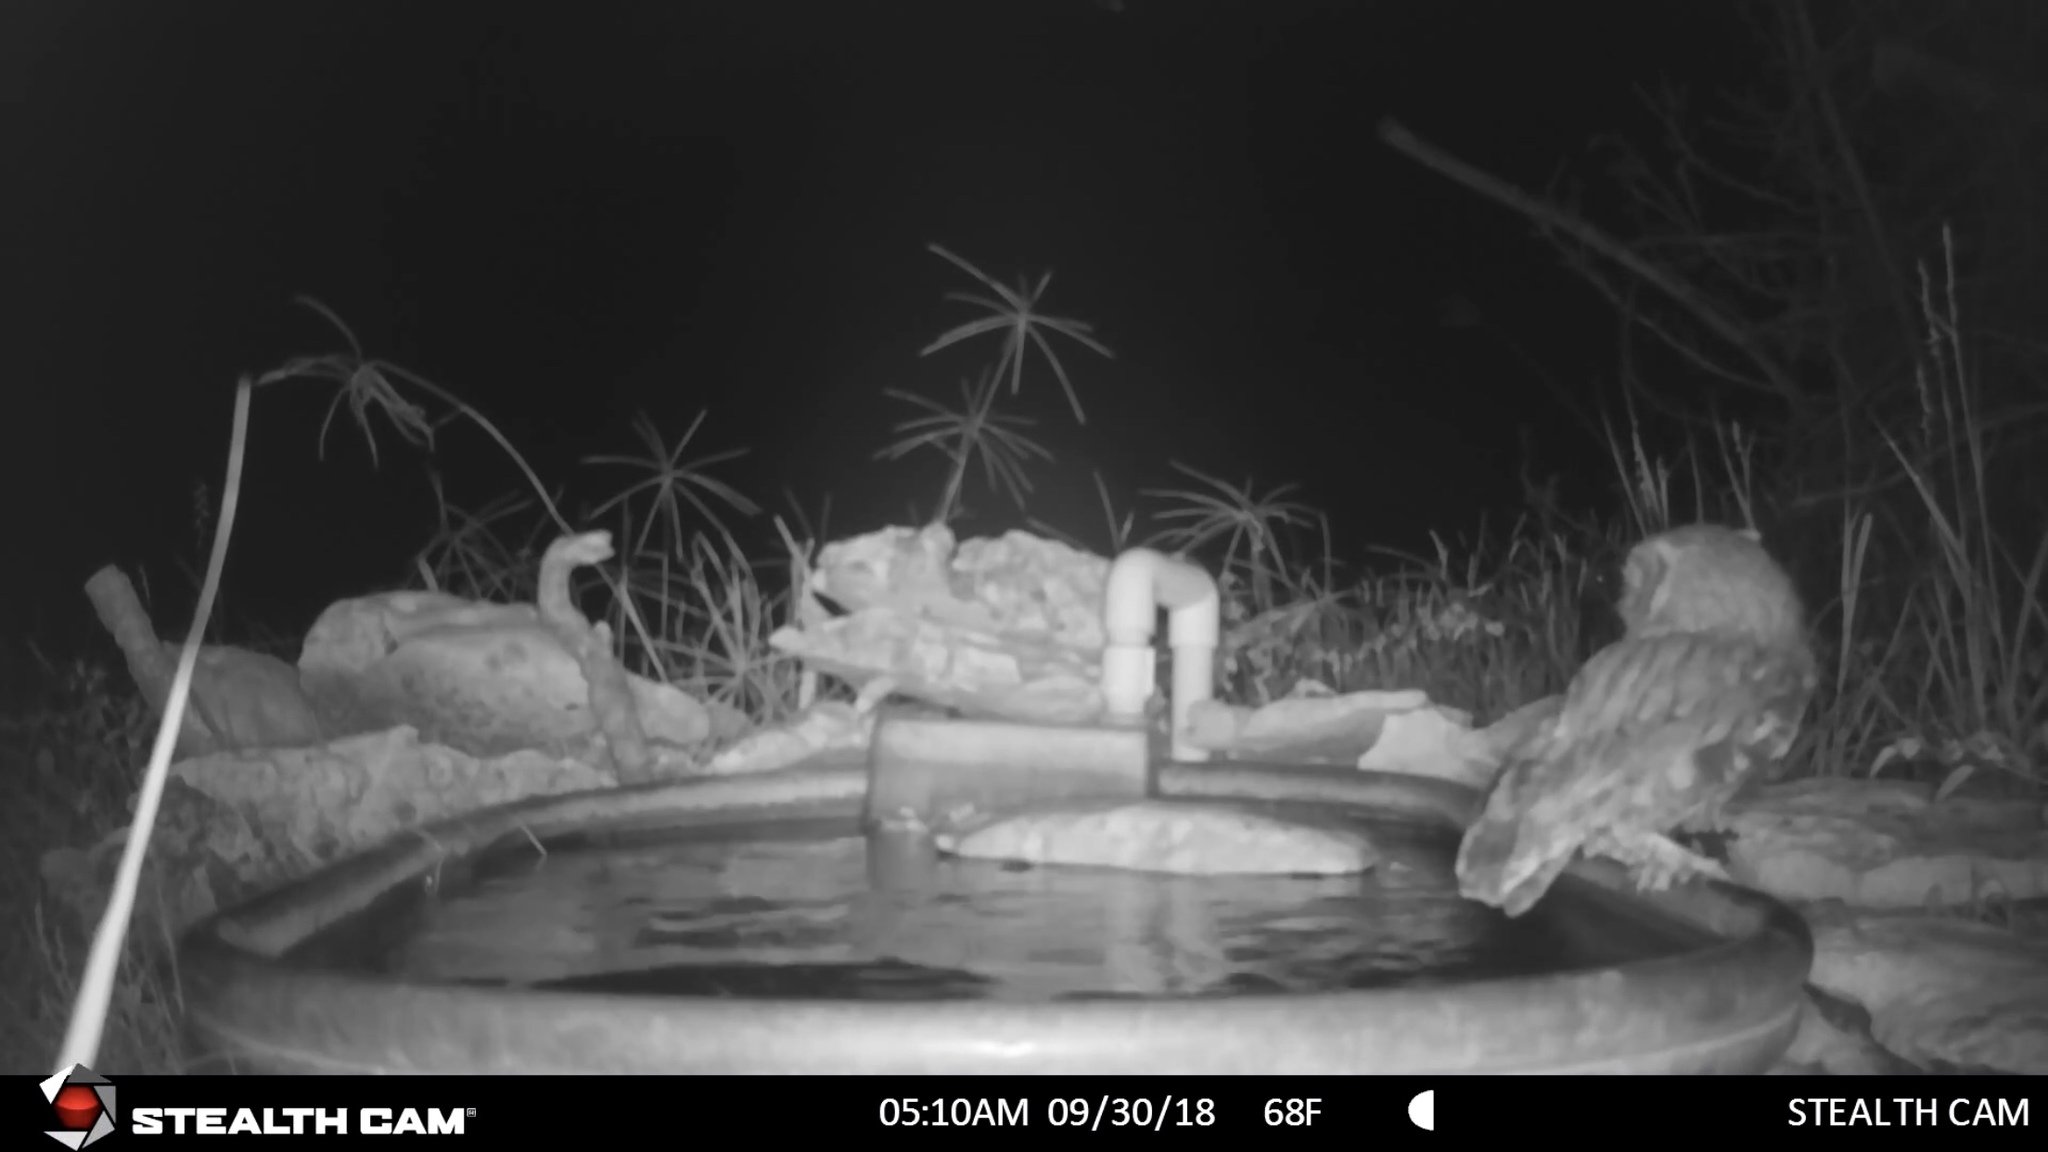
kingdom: Animalia
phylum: Chordata
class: Aves
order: Strigiformes
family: Strigidae
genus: Megascops
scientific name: Megascops asio
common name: Eastern screech-owl
